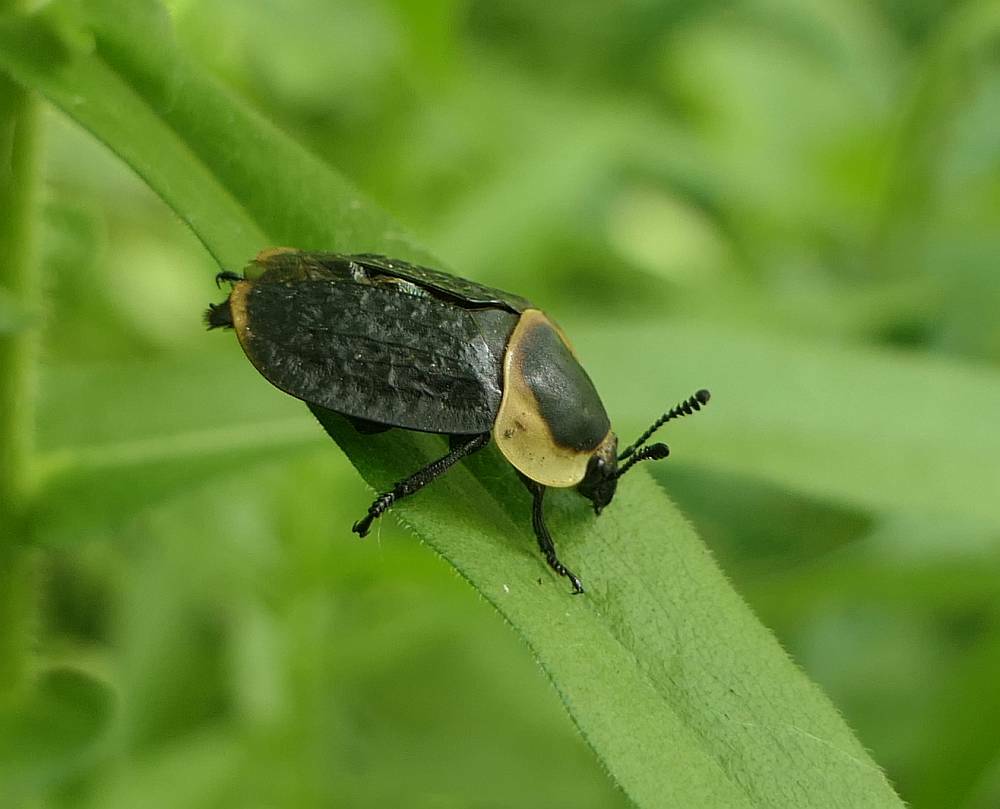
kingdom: Animalia
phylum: Arthropoda
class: Insecta
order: Coleoptera
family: Staphylinidae
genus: Necrophila
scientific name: Necrophila americana
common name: American carrion beetle
